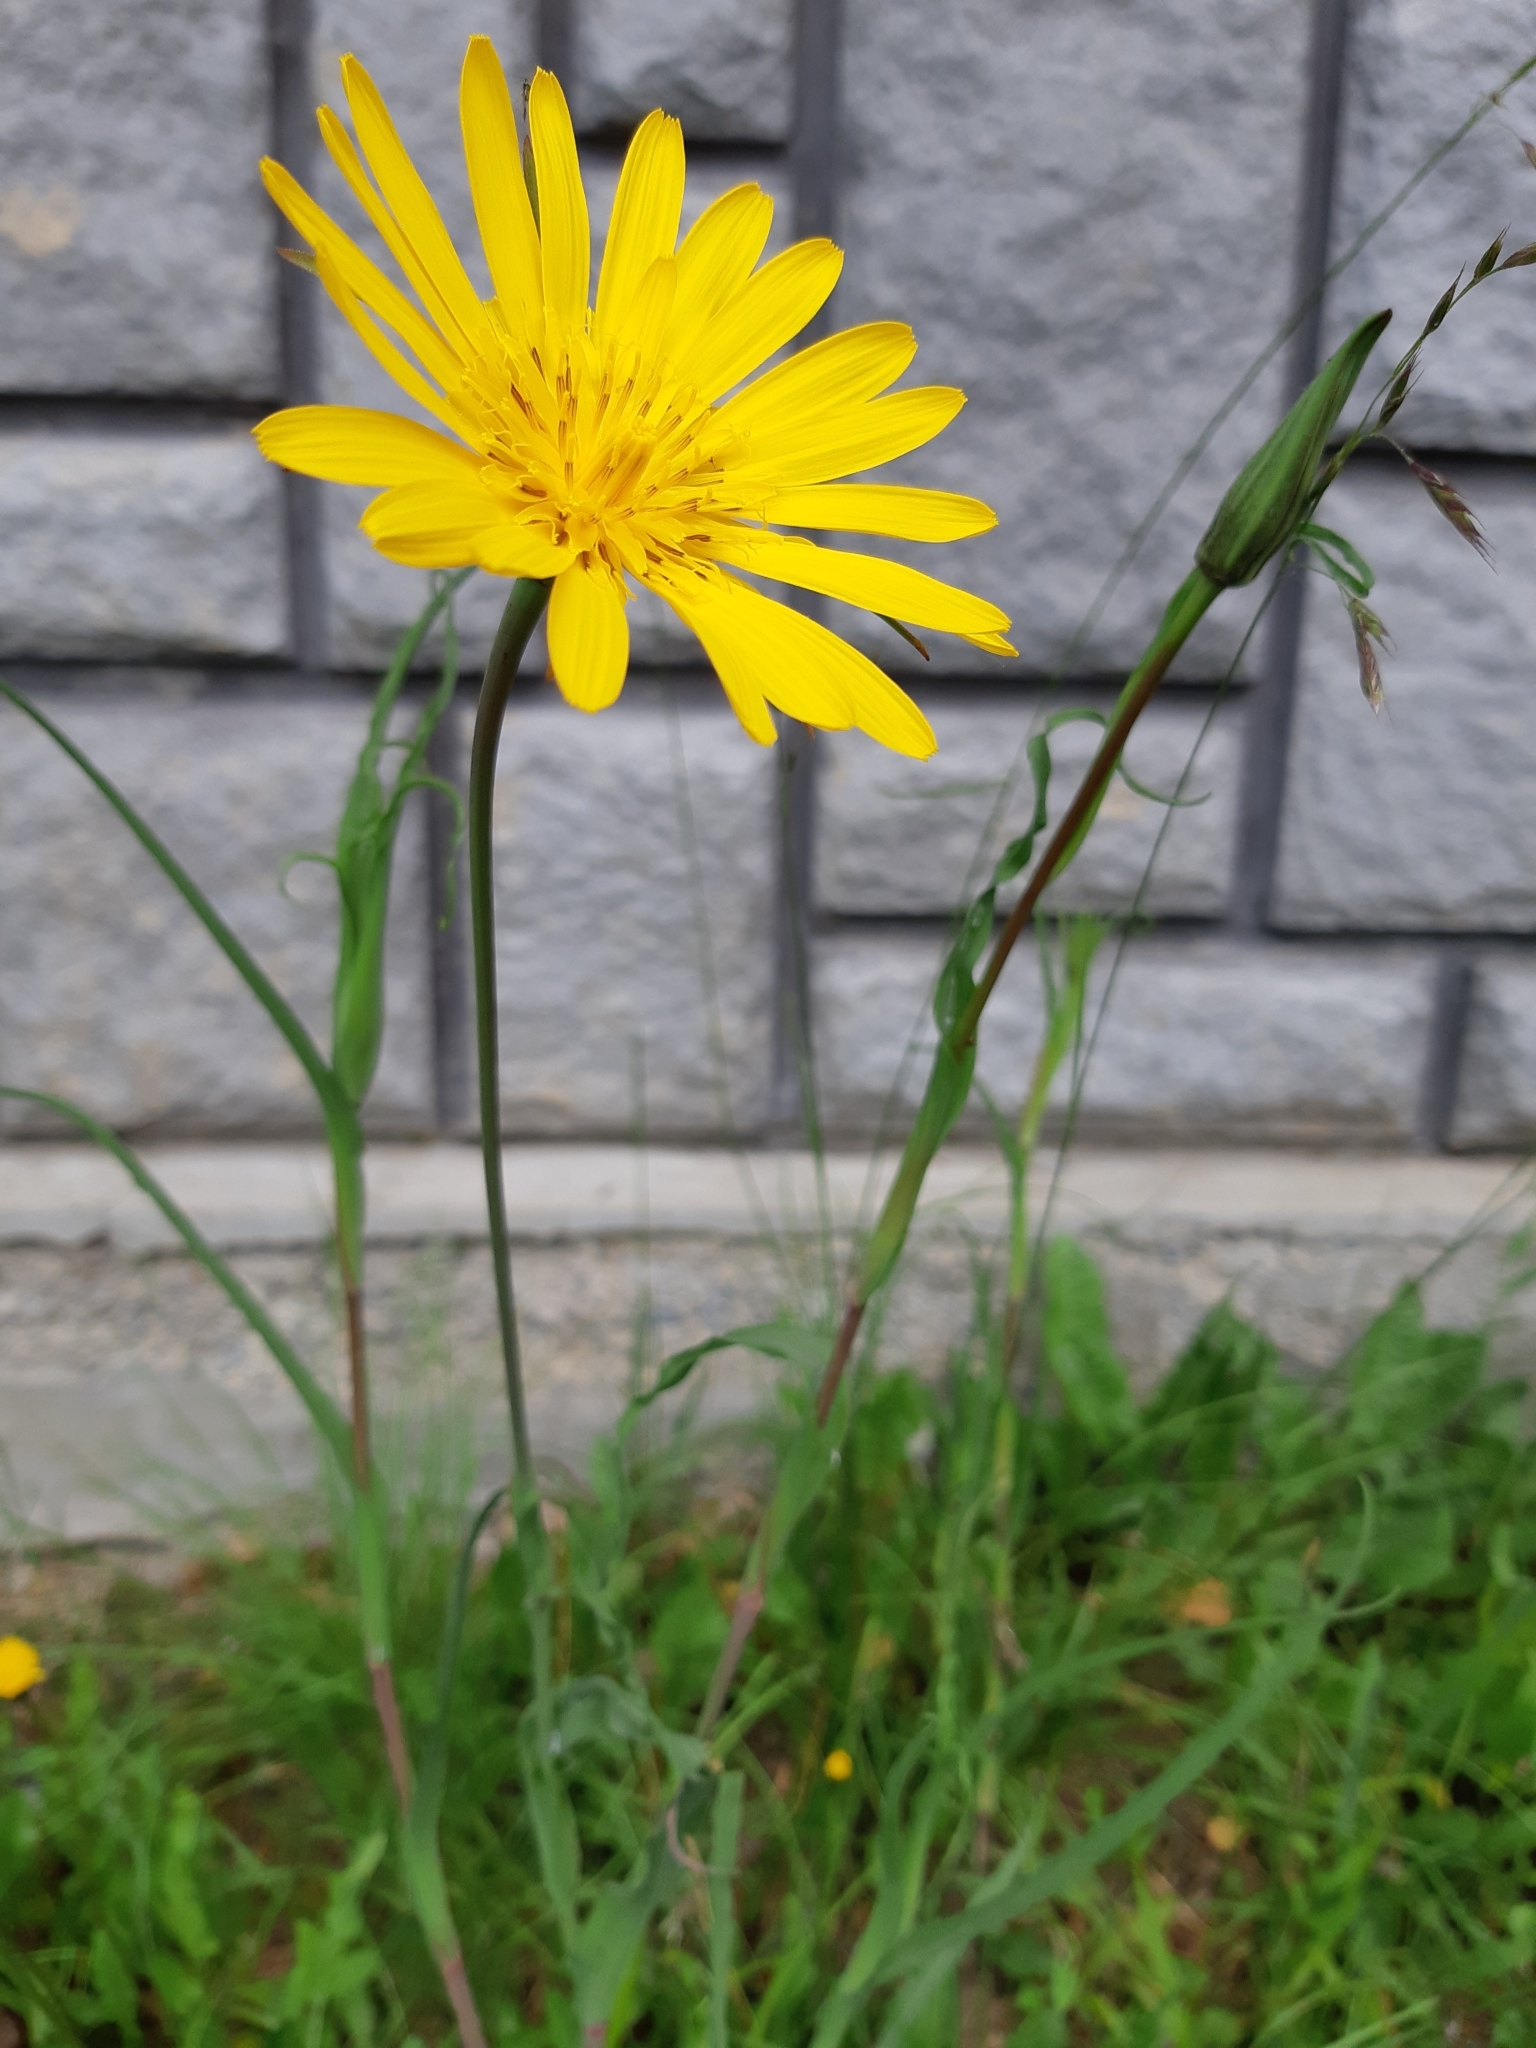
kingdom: Plantae
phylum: Tracheophyta
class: Magnoliopsida
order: Asterales
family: Asteraceae
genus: Tragopogon
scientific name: Tragopogon orientalis
